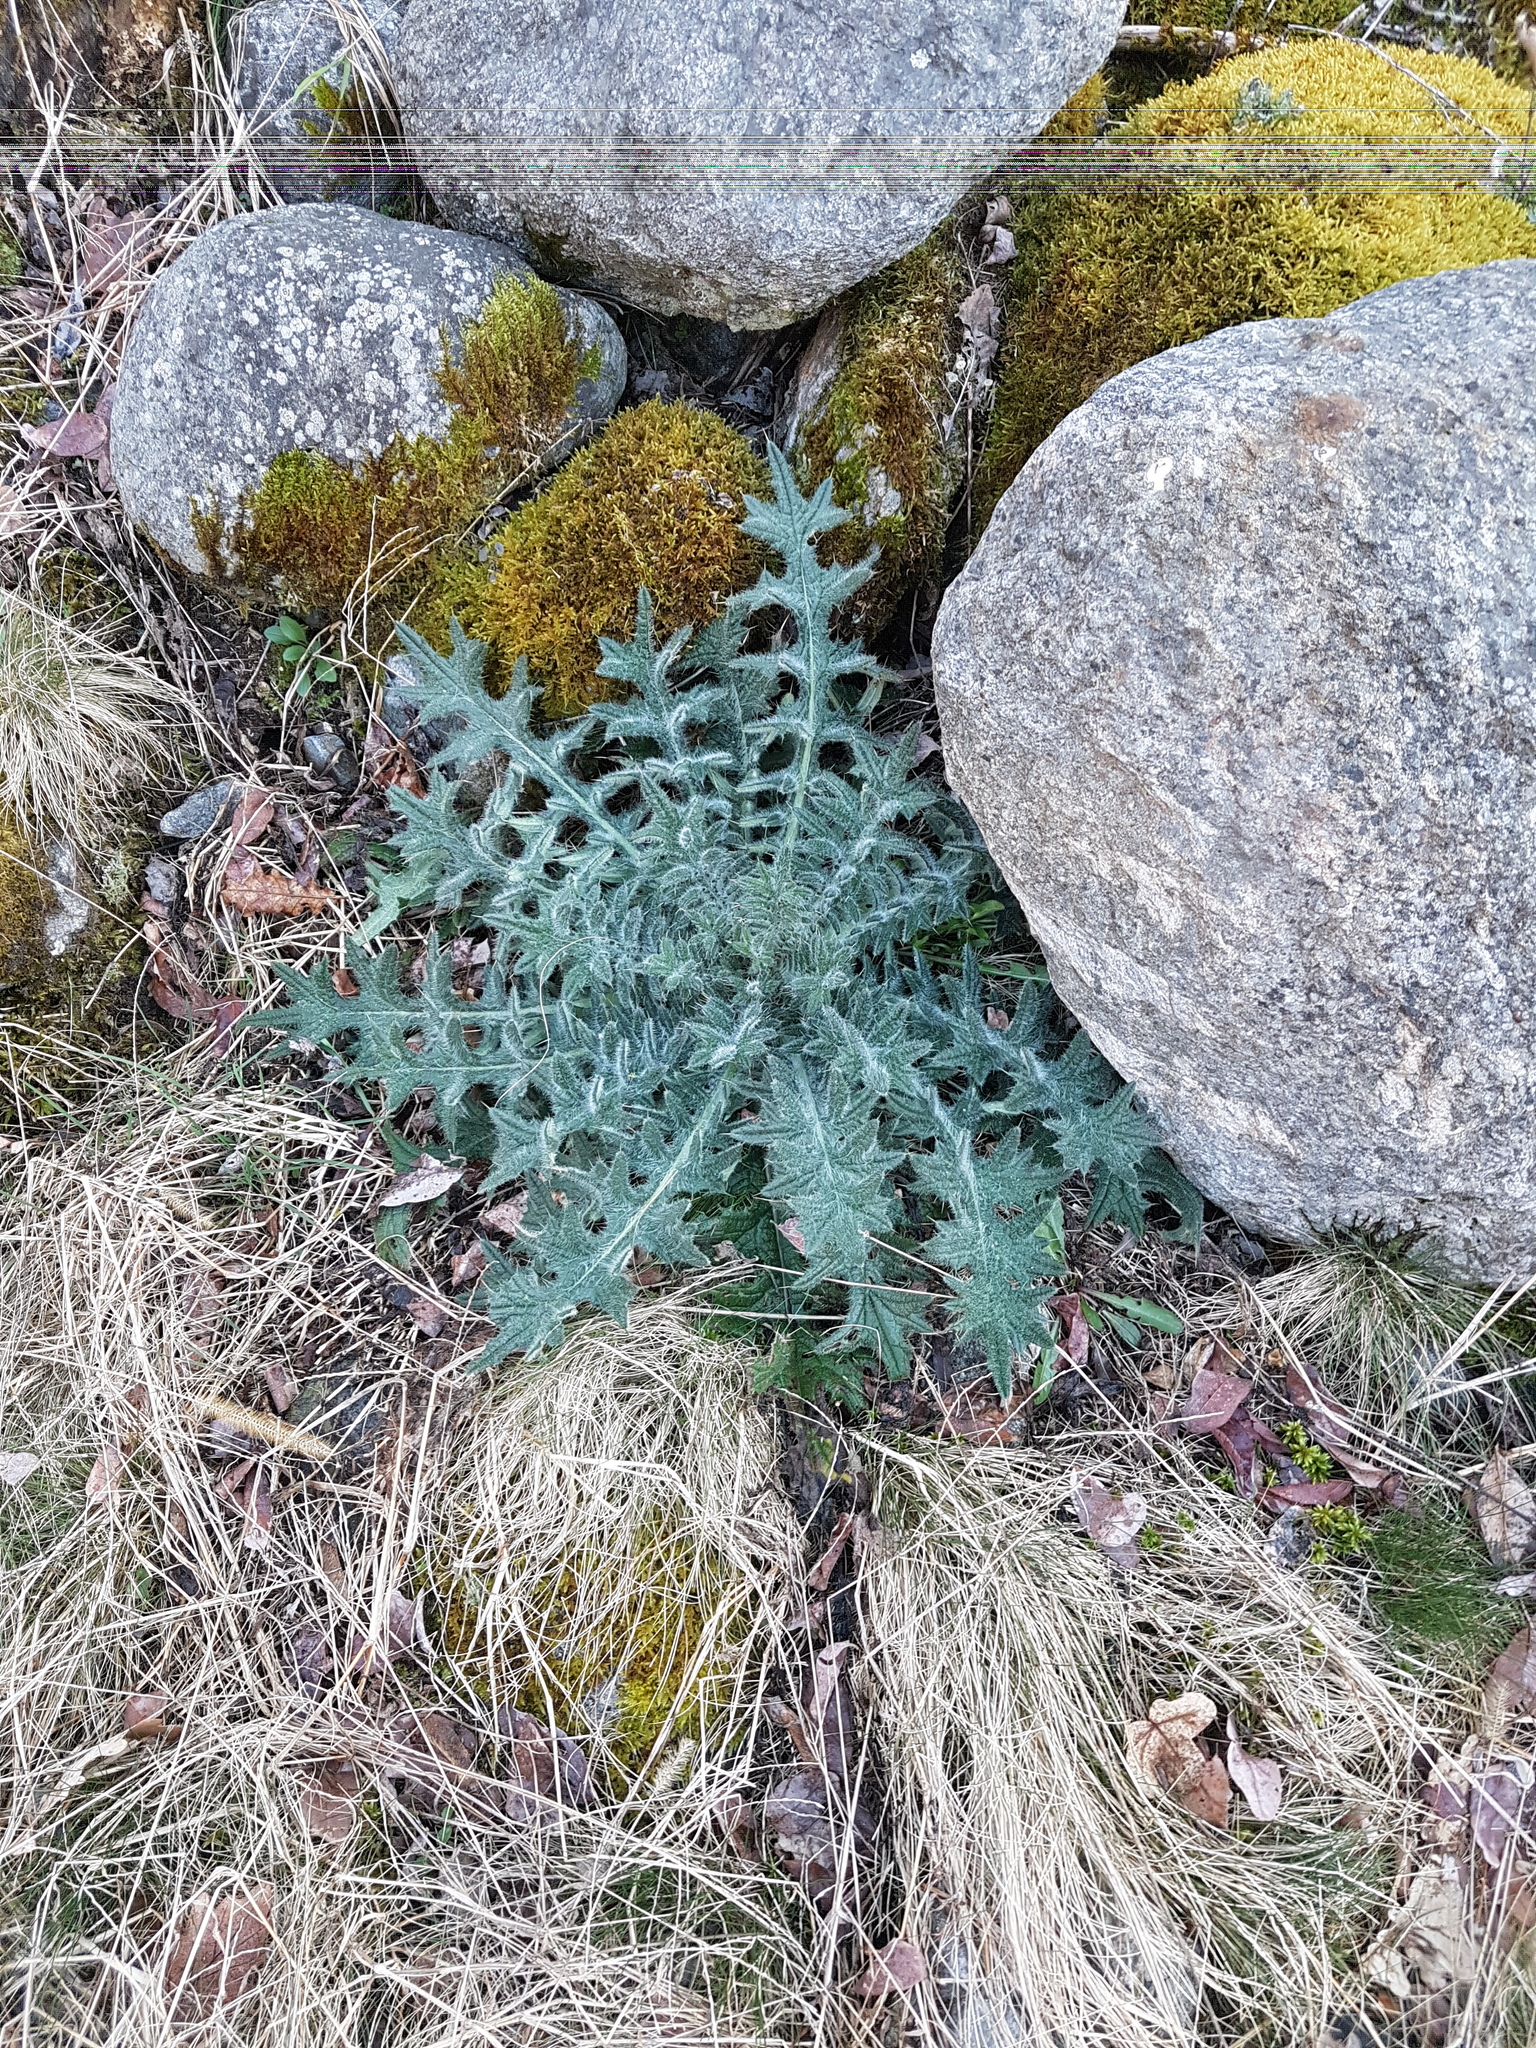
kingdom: Plantae
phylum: Tracheophyta
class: Magnoliopsida
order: Asterales
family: Asteraceae
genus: Cirsium
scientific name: Cirsium vulgare
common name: Bull thistle
